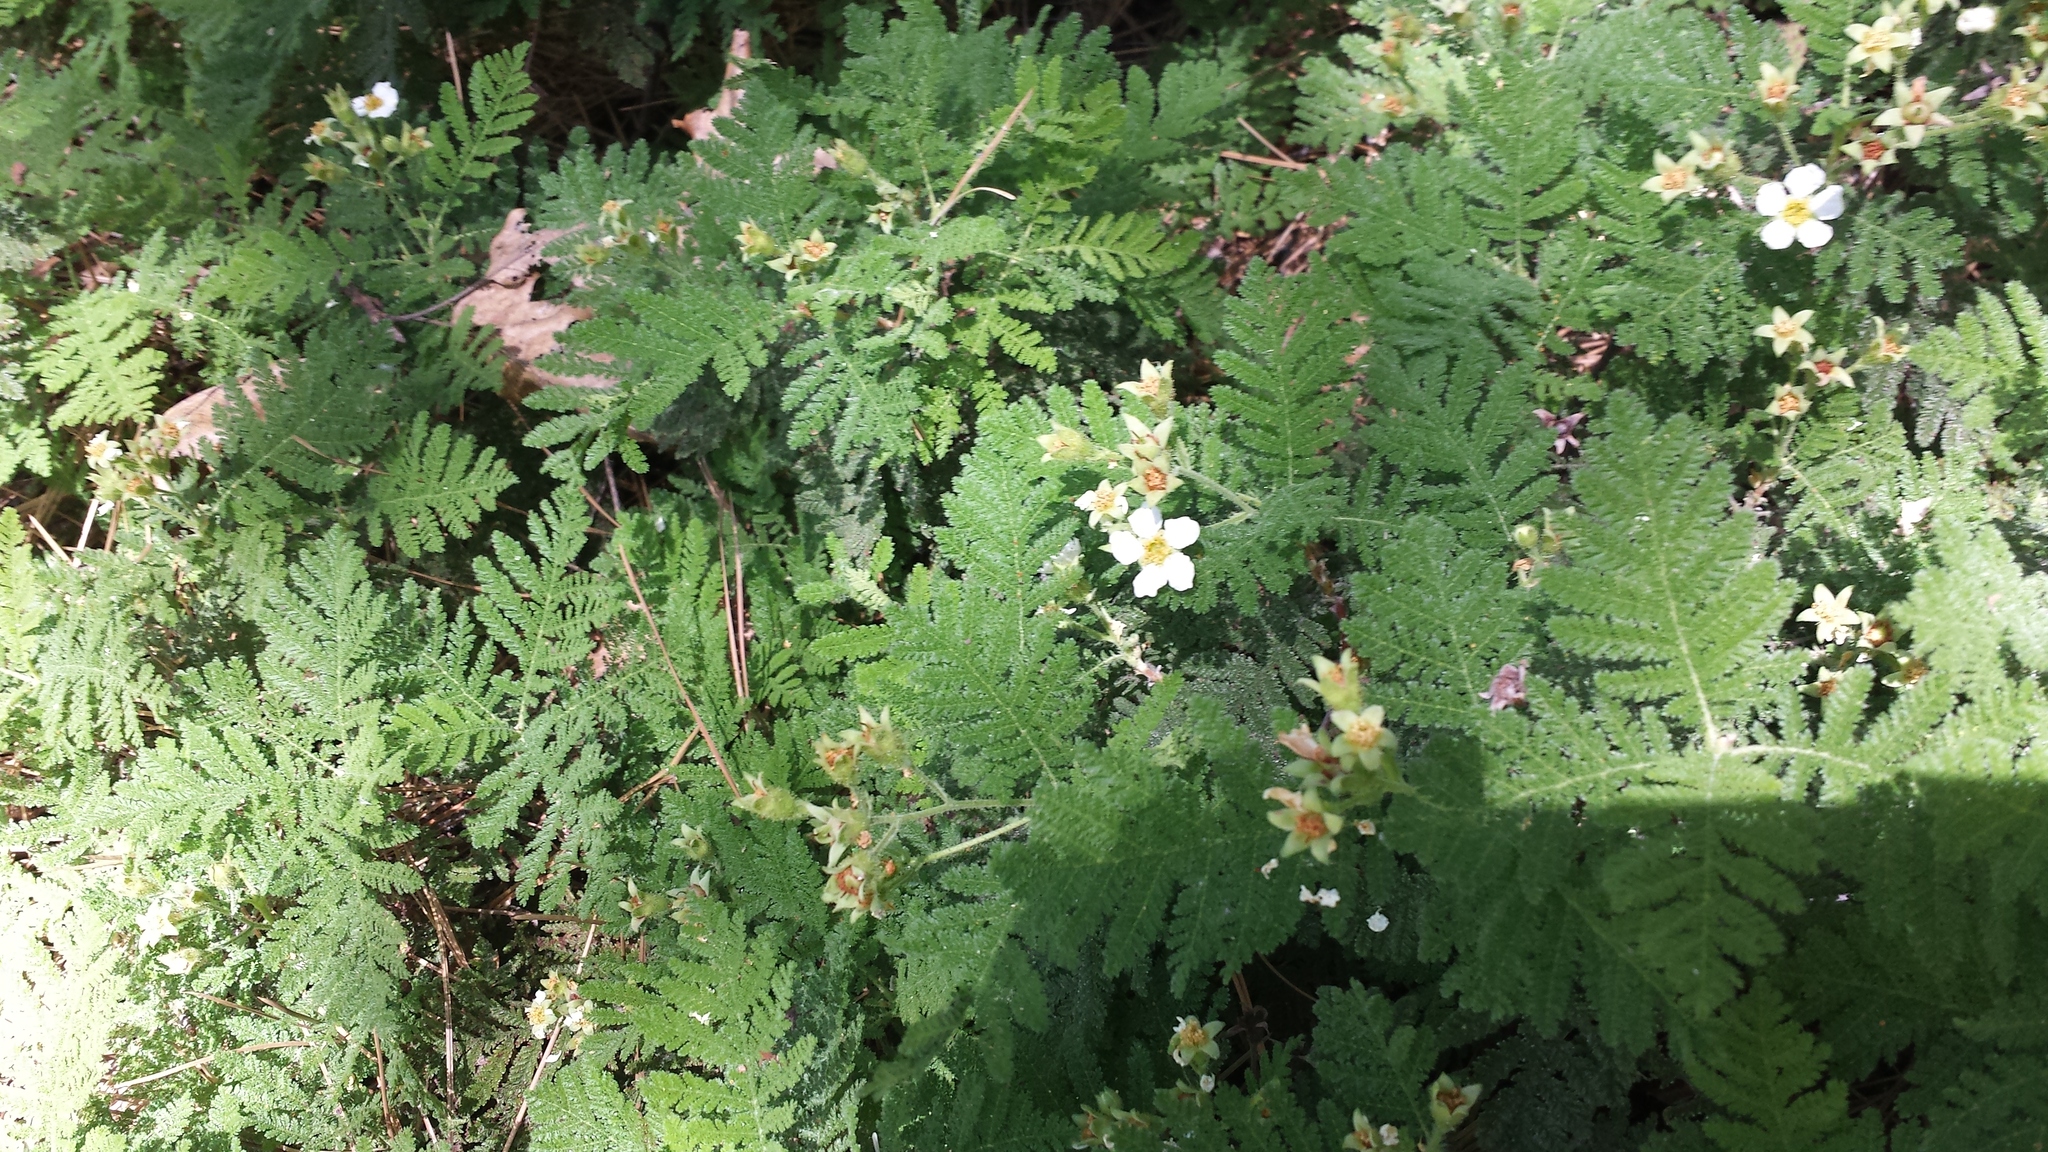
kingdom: Plantae
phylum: Tracheophyta
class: Magnoliopsida
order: Rosales
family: Rosaceae
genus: Chamaebatia
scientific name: Chamaebatia foliolosa
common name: Mountain misery
